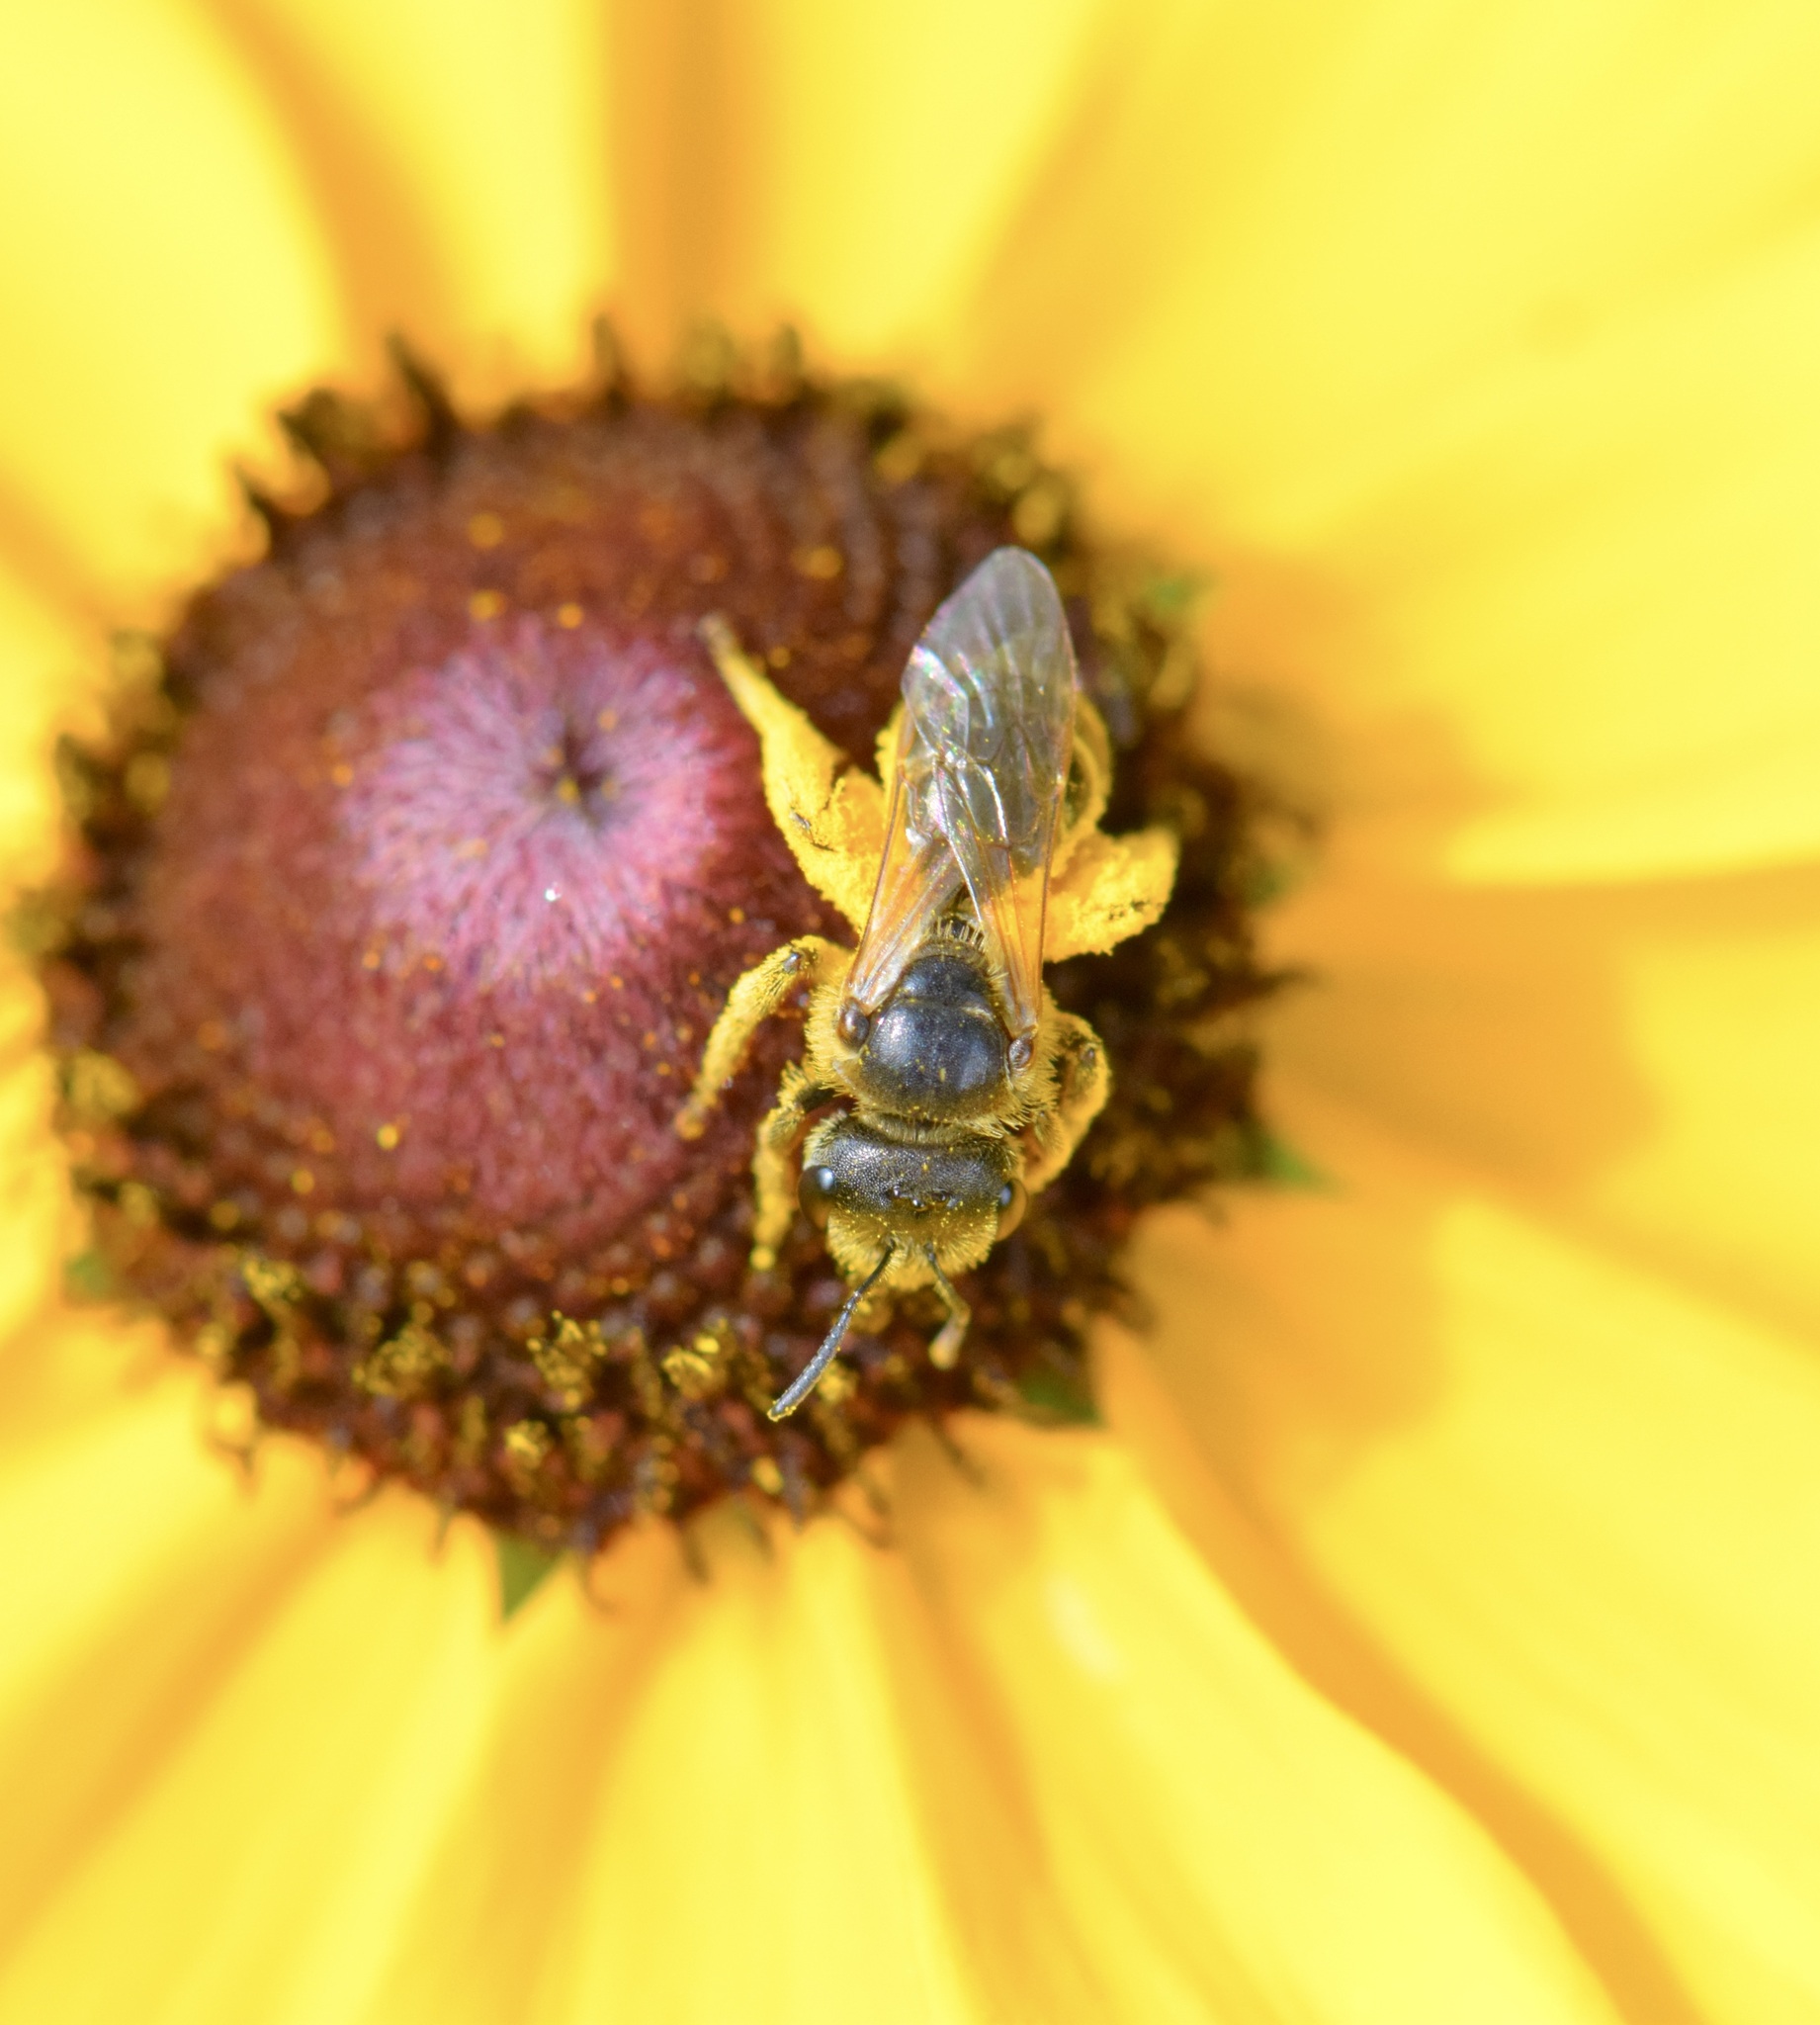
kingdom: Animalia
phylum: Arthropoda
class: Insecta
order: Hymenoptera
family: Halictidae
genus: Halictus
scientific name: Halictus ligatus
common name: Ligated furrow bee
